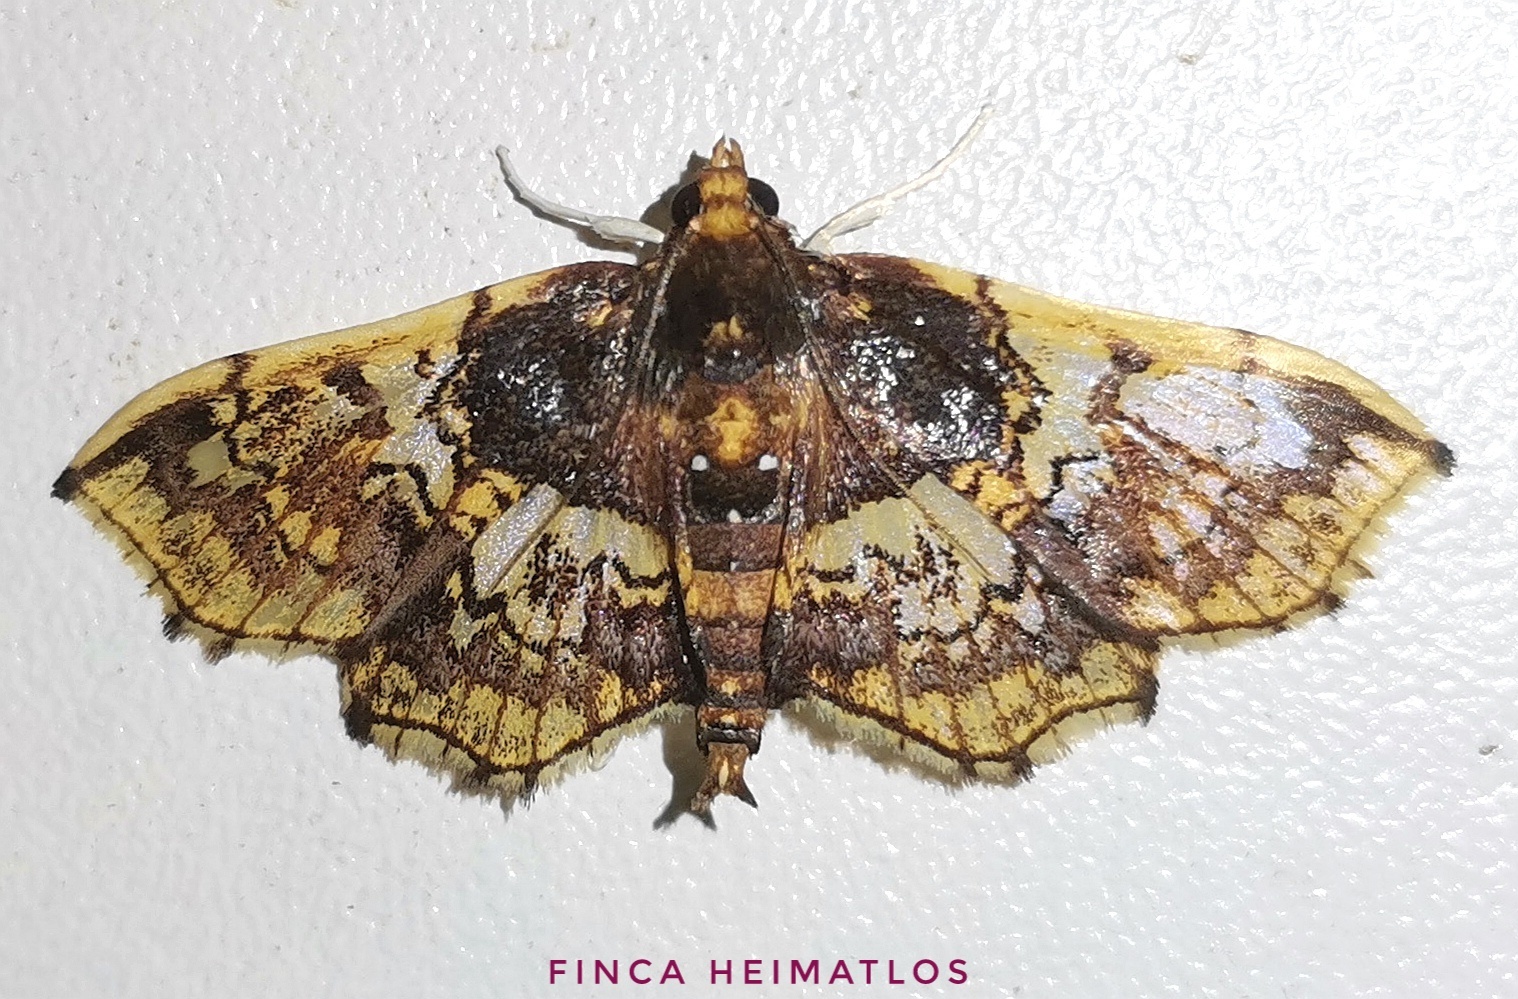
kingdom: Animalia
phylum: Arthropoda
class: Insecta
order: Lepidoptera
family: Crambidae
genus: Megastes
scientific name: Megastes erythrostolalis
